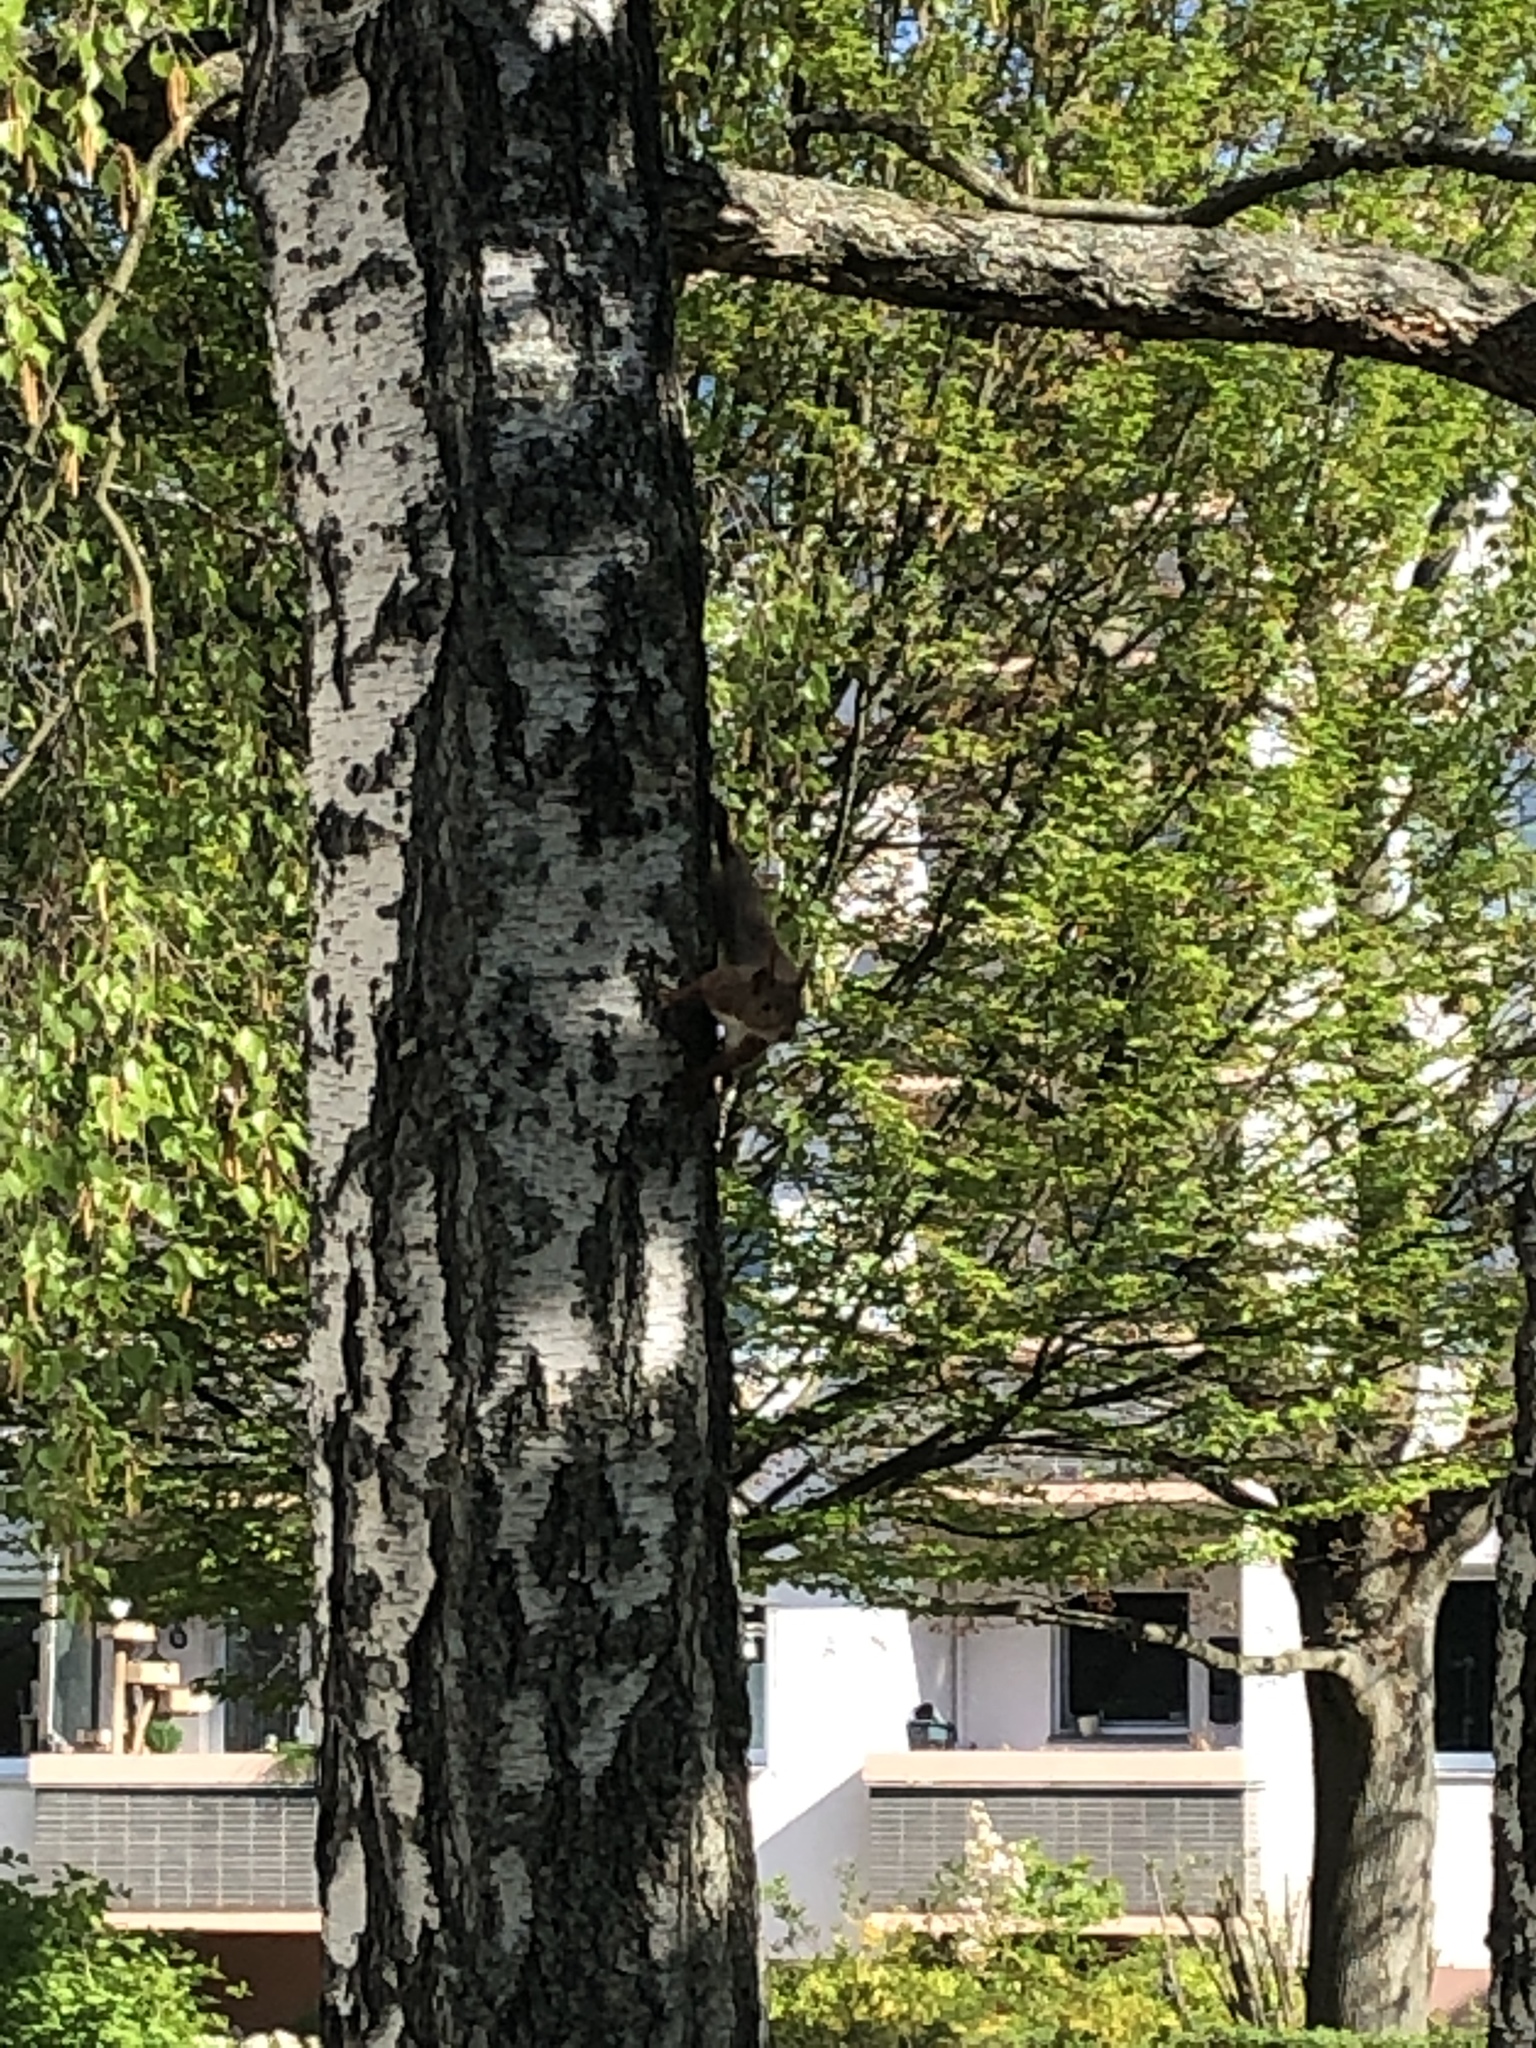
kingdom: Animalia
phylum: Chordata
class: Mammalia
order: Rodentia
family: Sciuridae
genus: Sciurus
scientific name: Sciurus vulgaris
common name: Eurasian red squirrel
